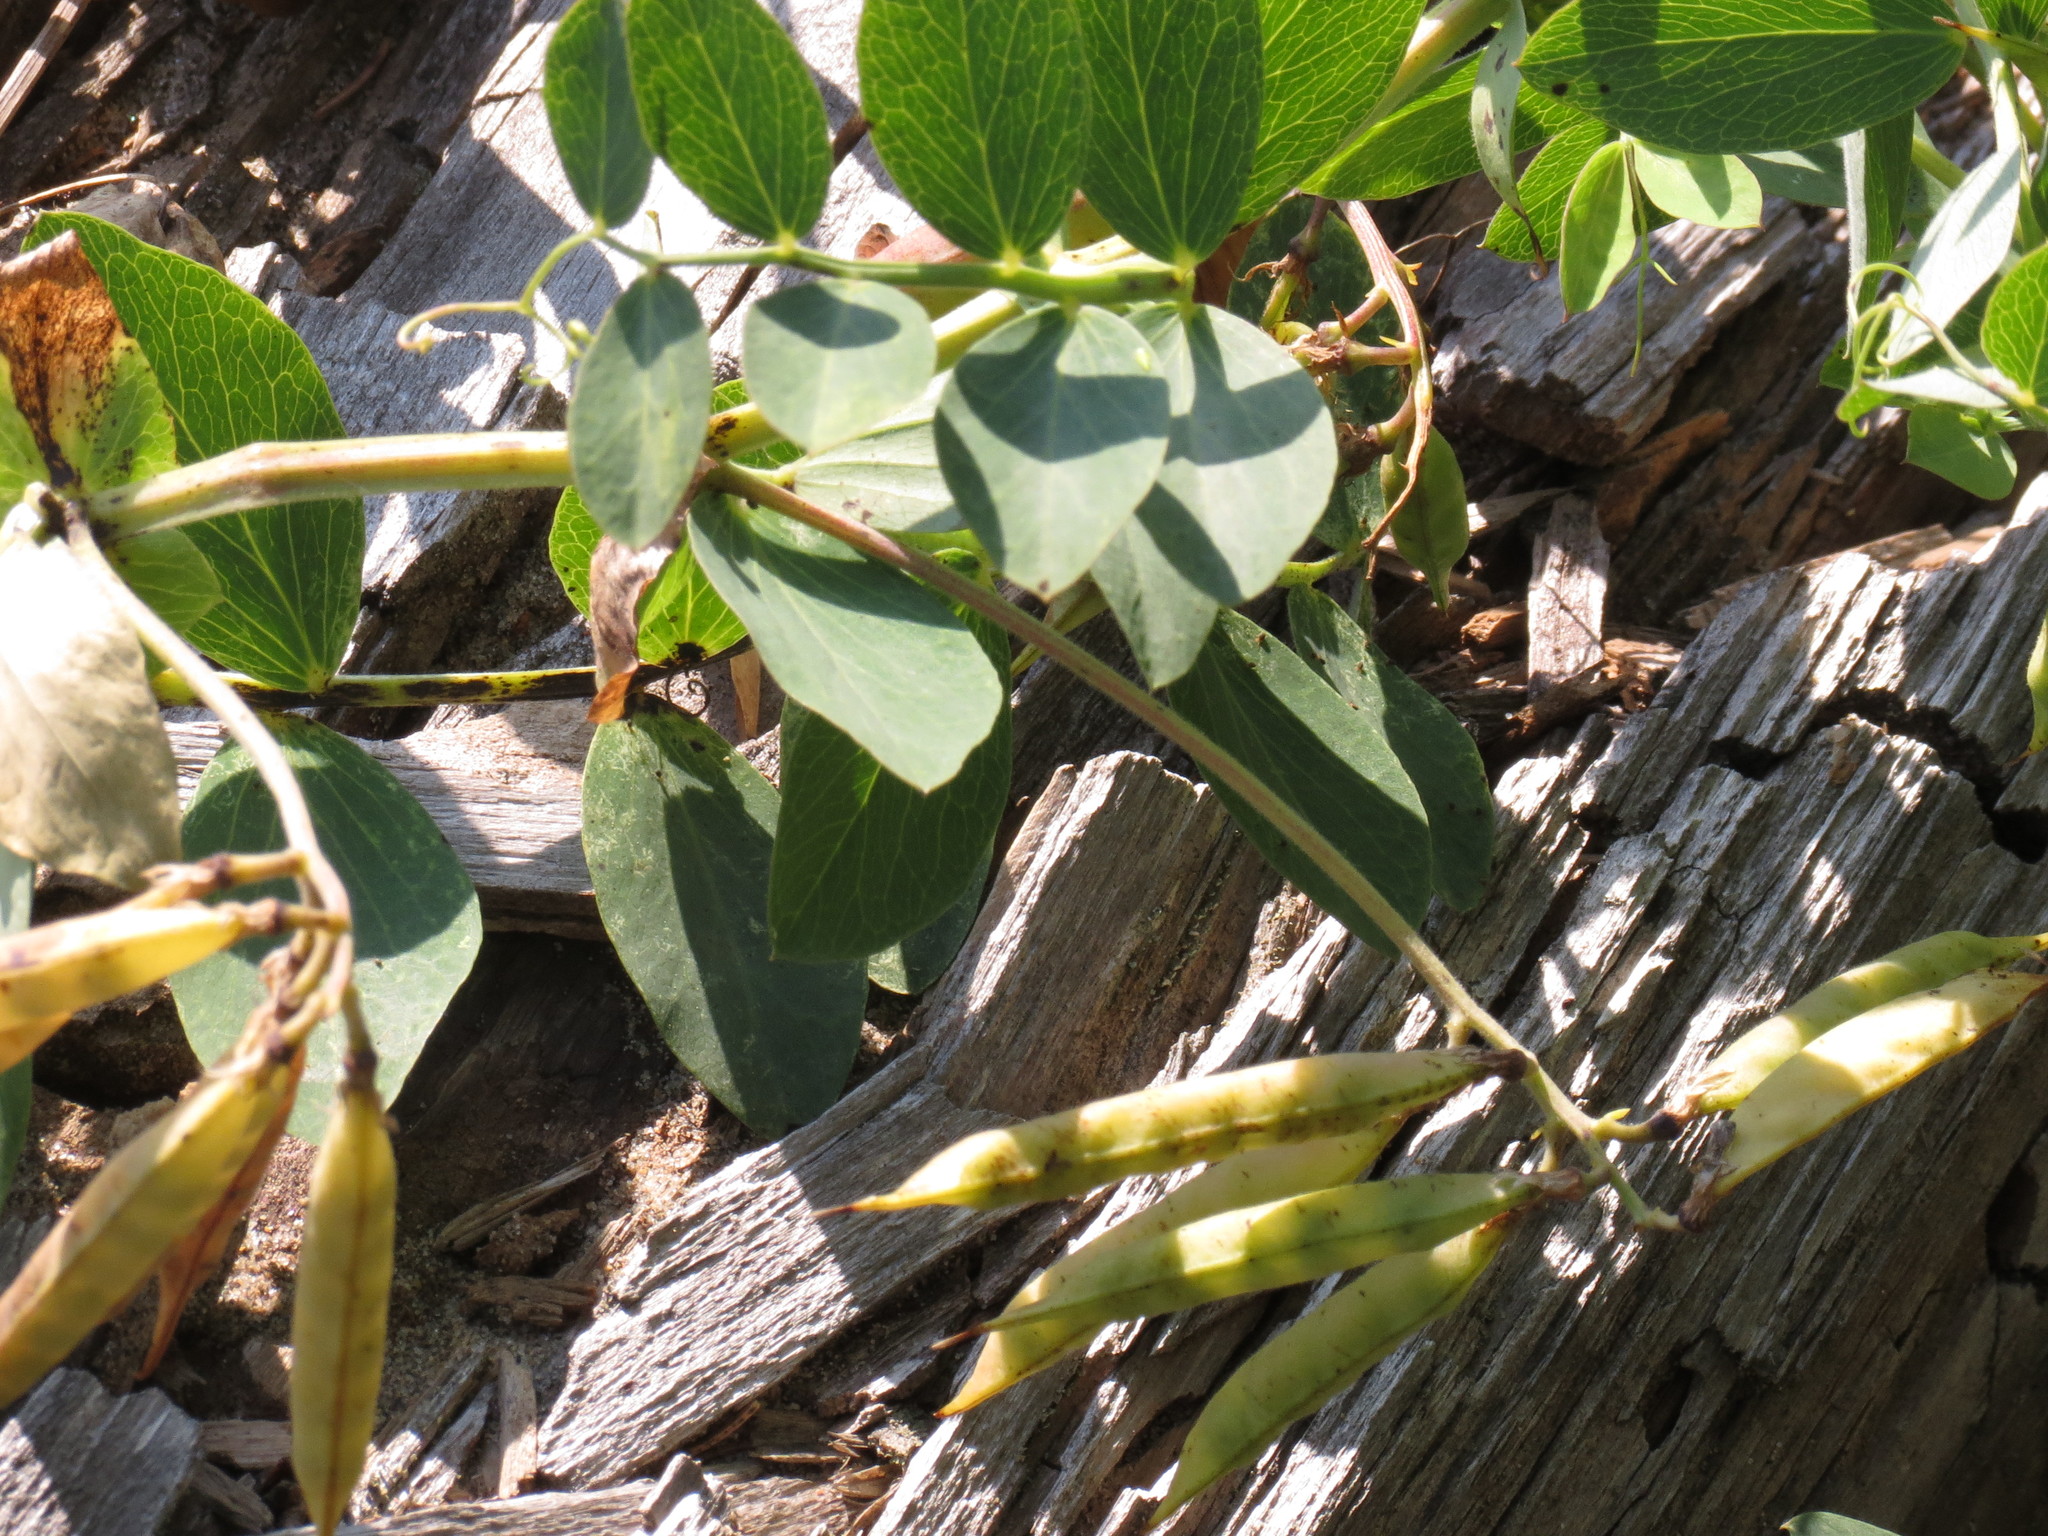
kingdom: Plantae
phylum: Tracheophyta
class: Magnoliopsida
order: Fabales
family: Fabaceae
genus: Lathyrus
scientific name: Lathyrus japonicus
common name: Sea pea
